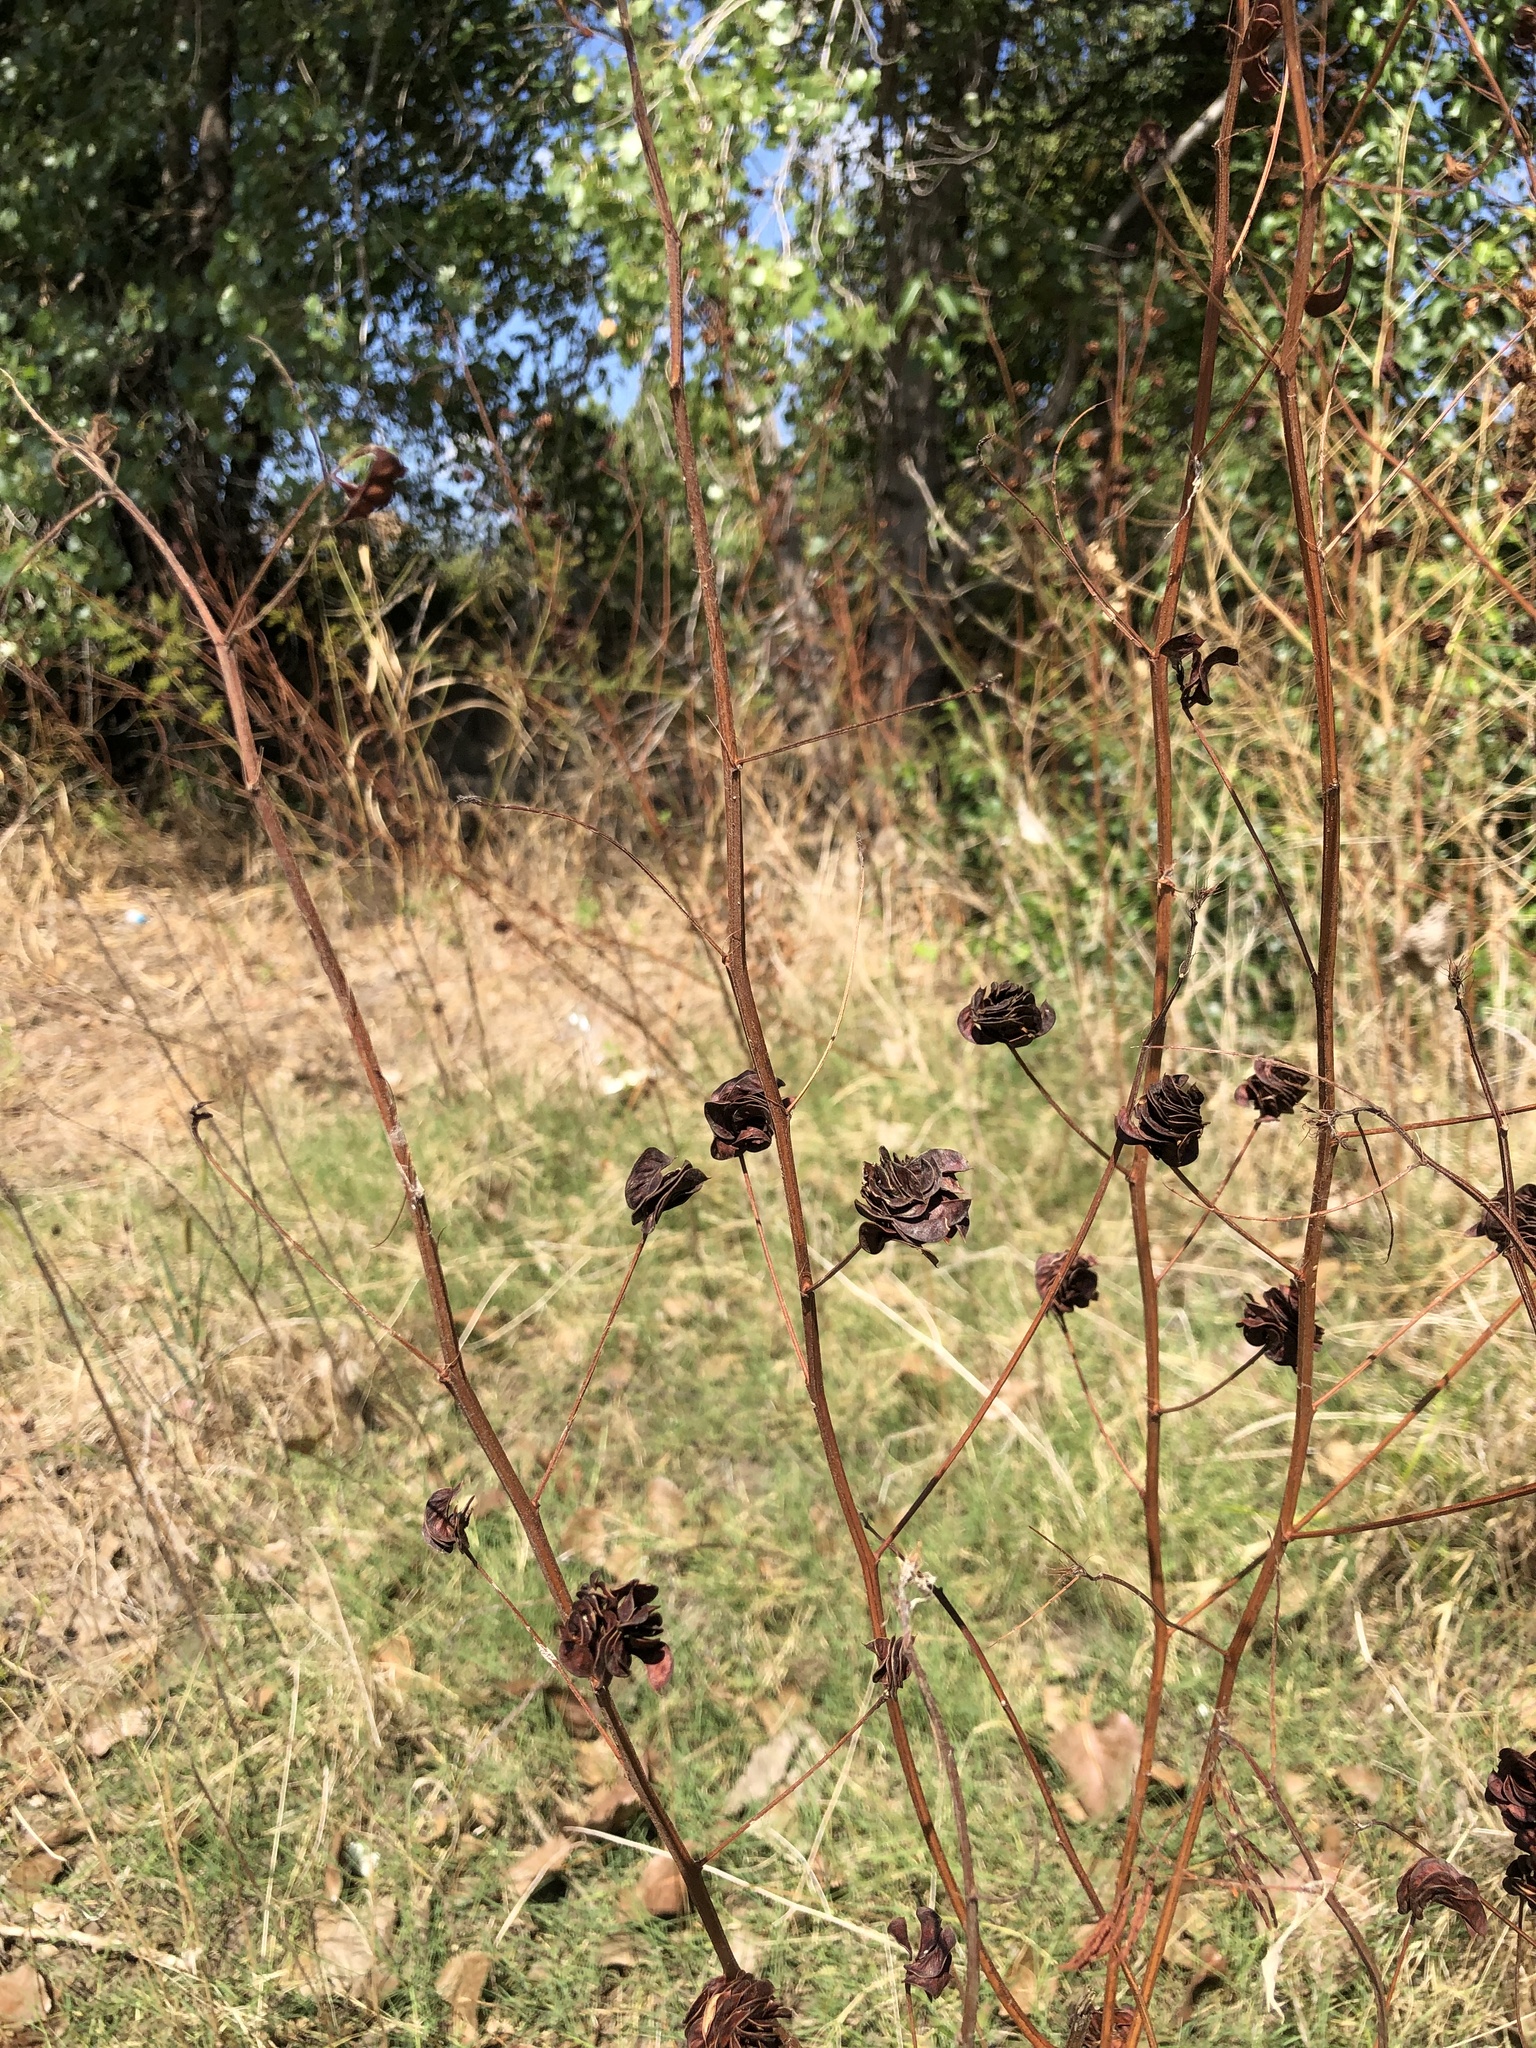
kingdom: Plantae
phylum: Tracheophyta
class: Magnoliopsida
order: Fabales
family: Fabaceae
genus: Desmanthus
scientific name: Desmanthus illinoensis
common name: Illinois bundle-flower
